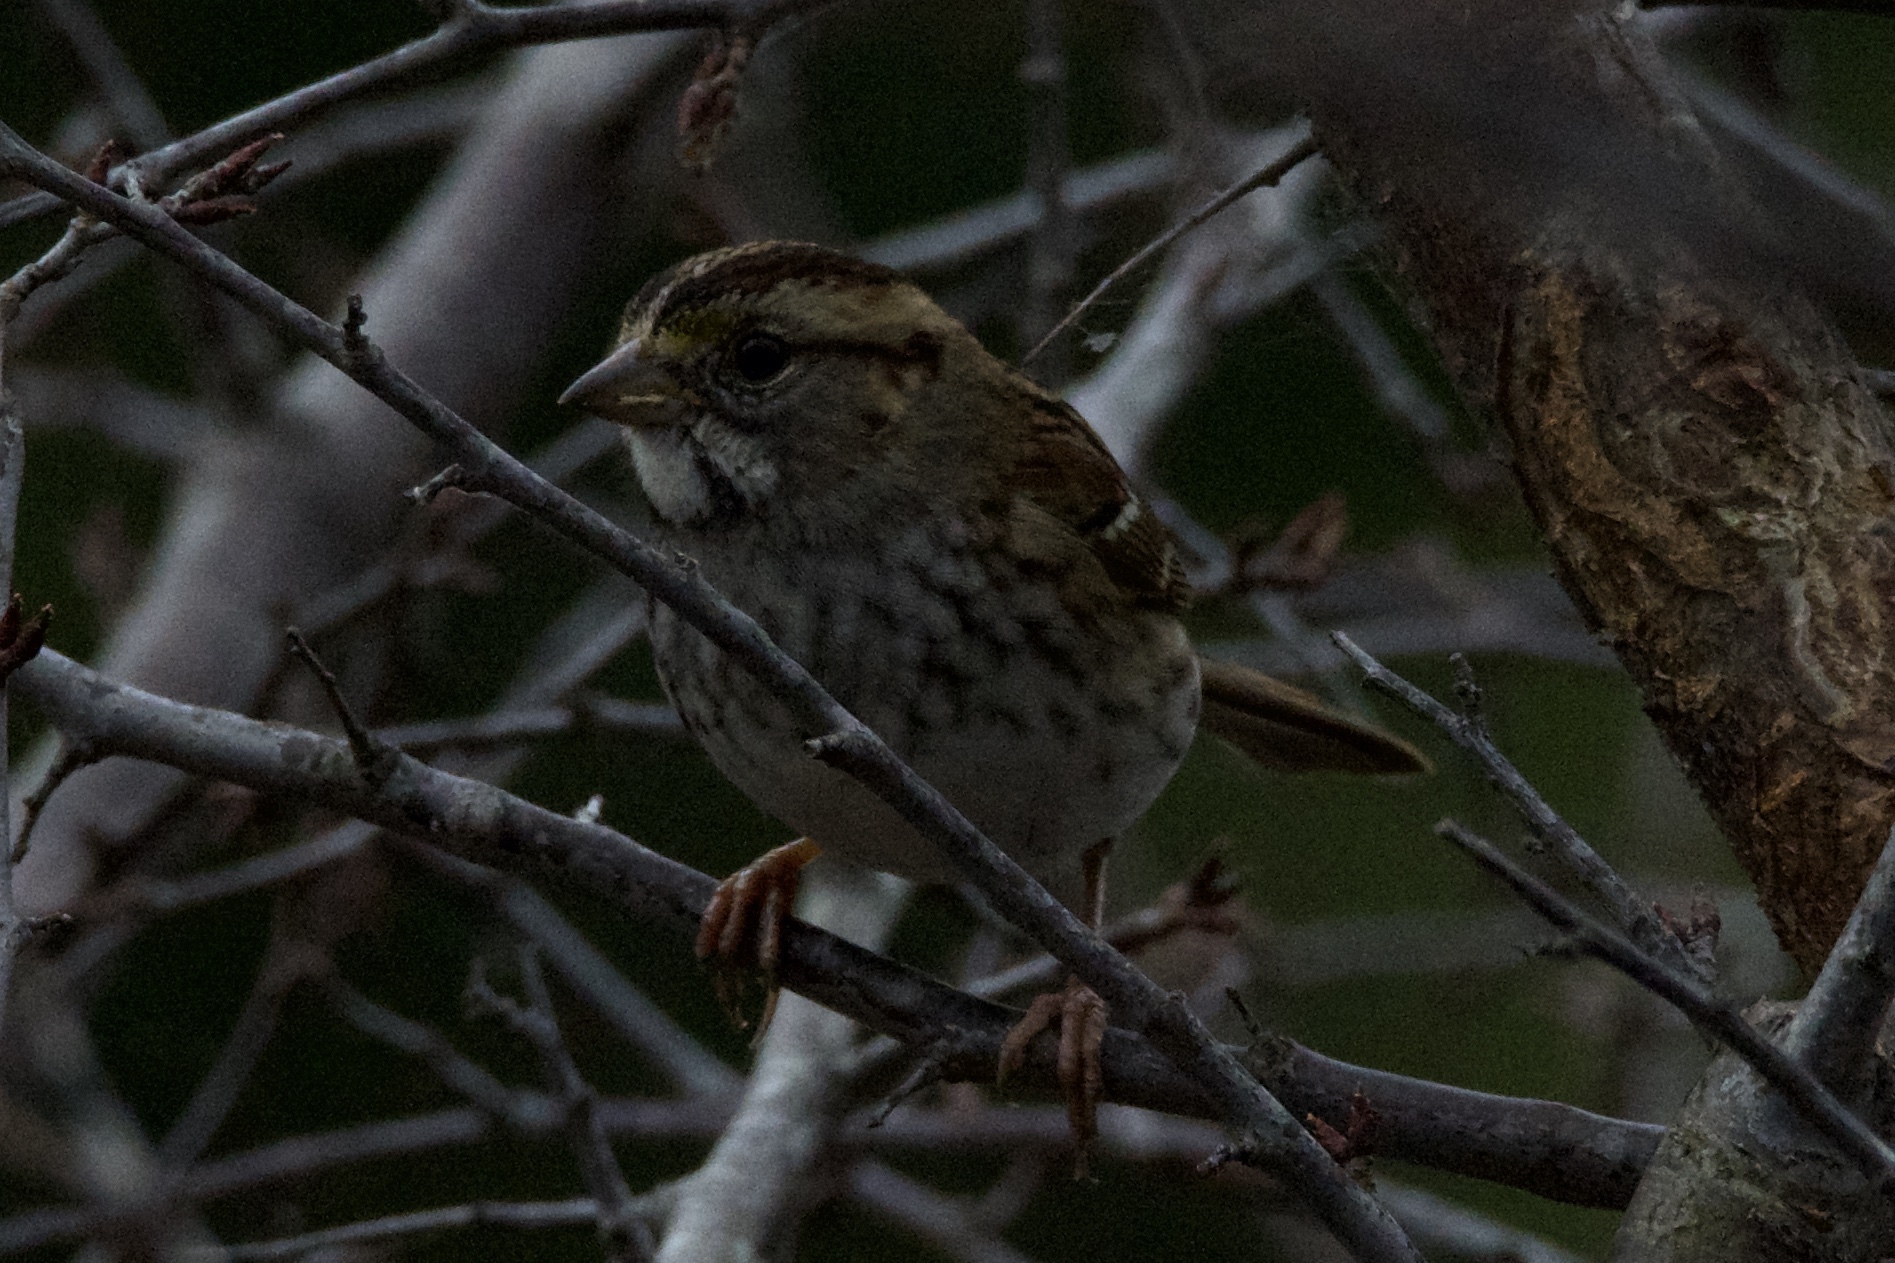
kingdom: Animalia
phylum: Chordata
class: Aves
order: Passeriformes
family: Passerellidae
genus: Zonotrichia
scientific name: Zonotrichia albicollis
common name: White-throated sparrow
